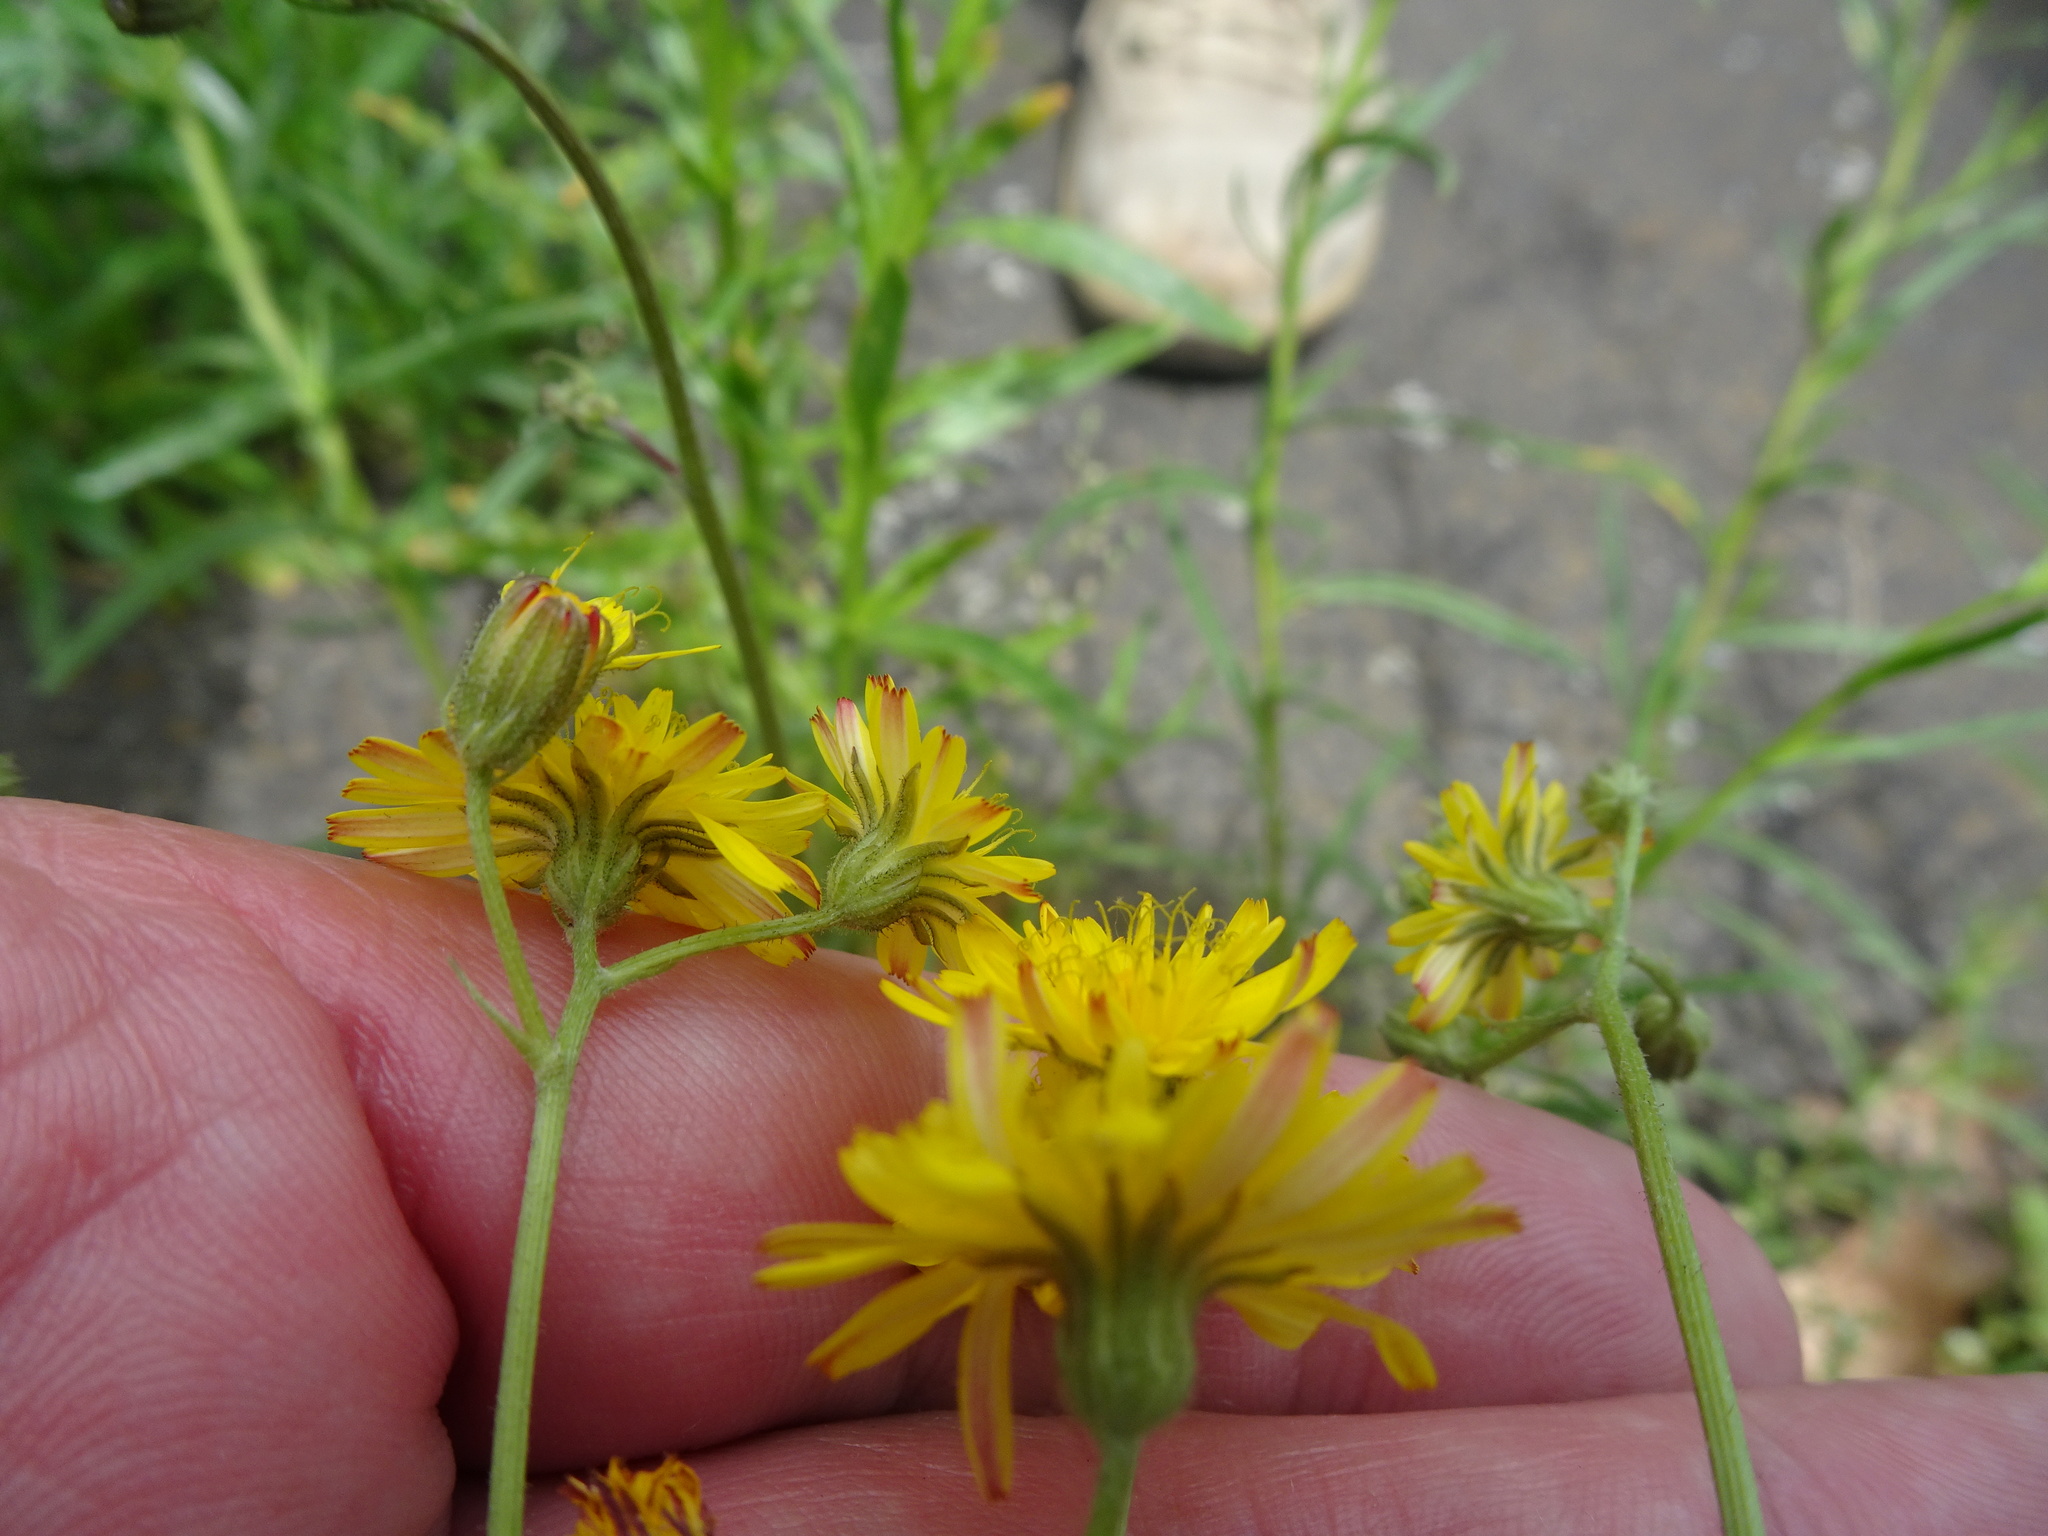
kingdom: Plantae
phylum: Tracheophyta
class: Magnoliopsida
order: Asterales
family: Asteraceae
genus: Crepis
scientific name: Crepis capillaris
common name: Smooth hawksbeard
